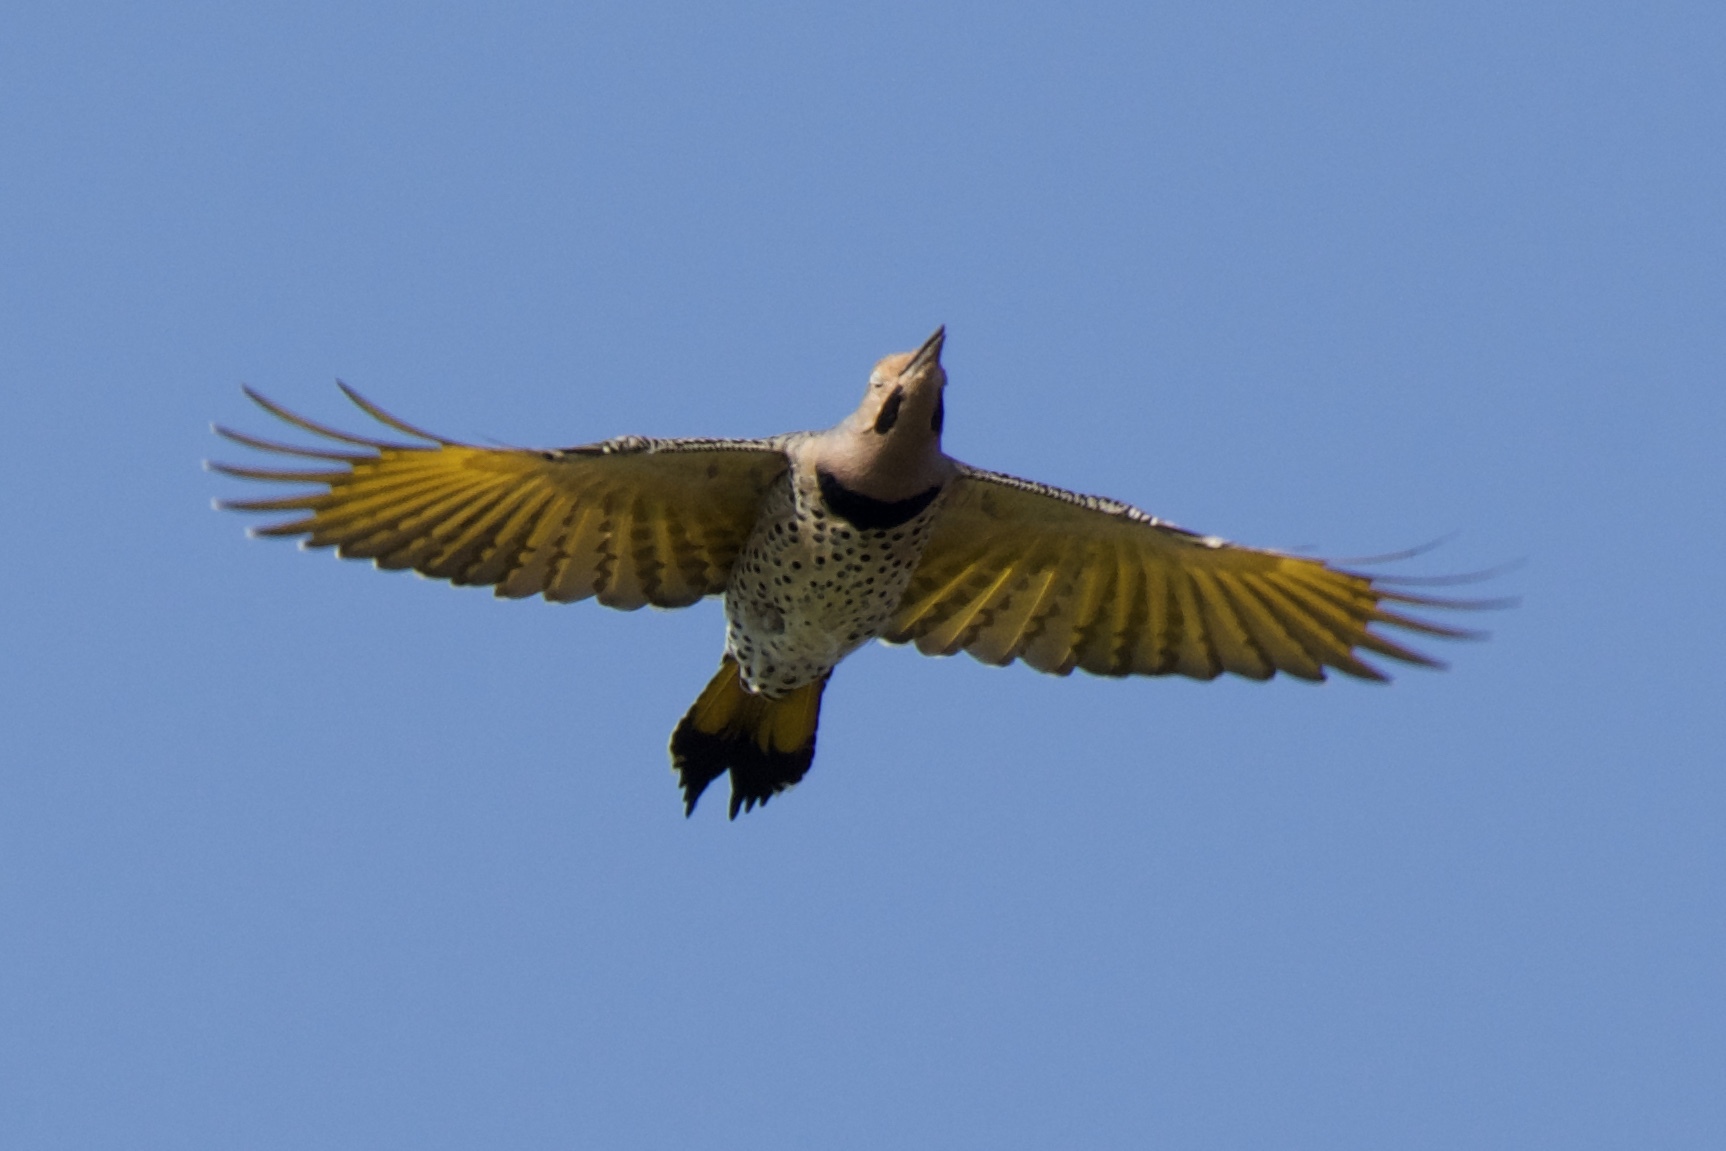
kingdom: Animalia
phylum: Chordata
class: Aves
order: Piciformes
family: Picidae
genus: Colaptes
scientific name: Colaptes auratus
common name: Northern flicker
